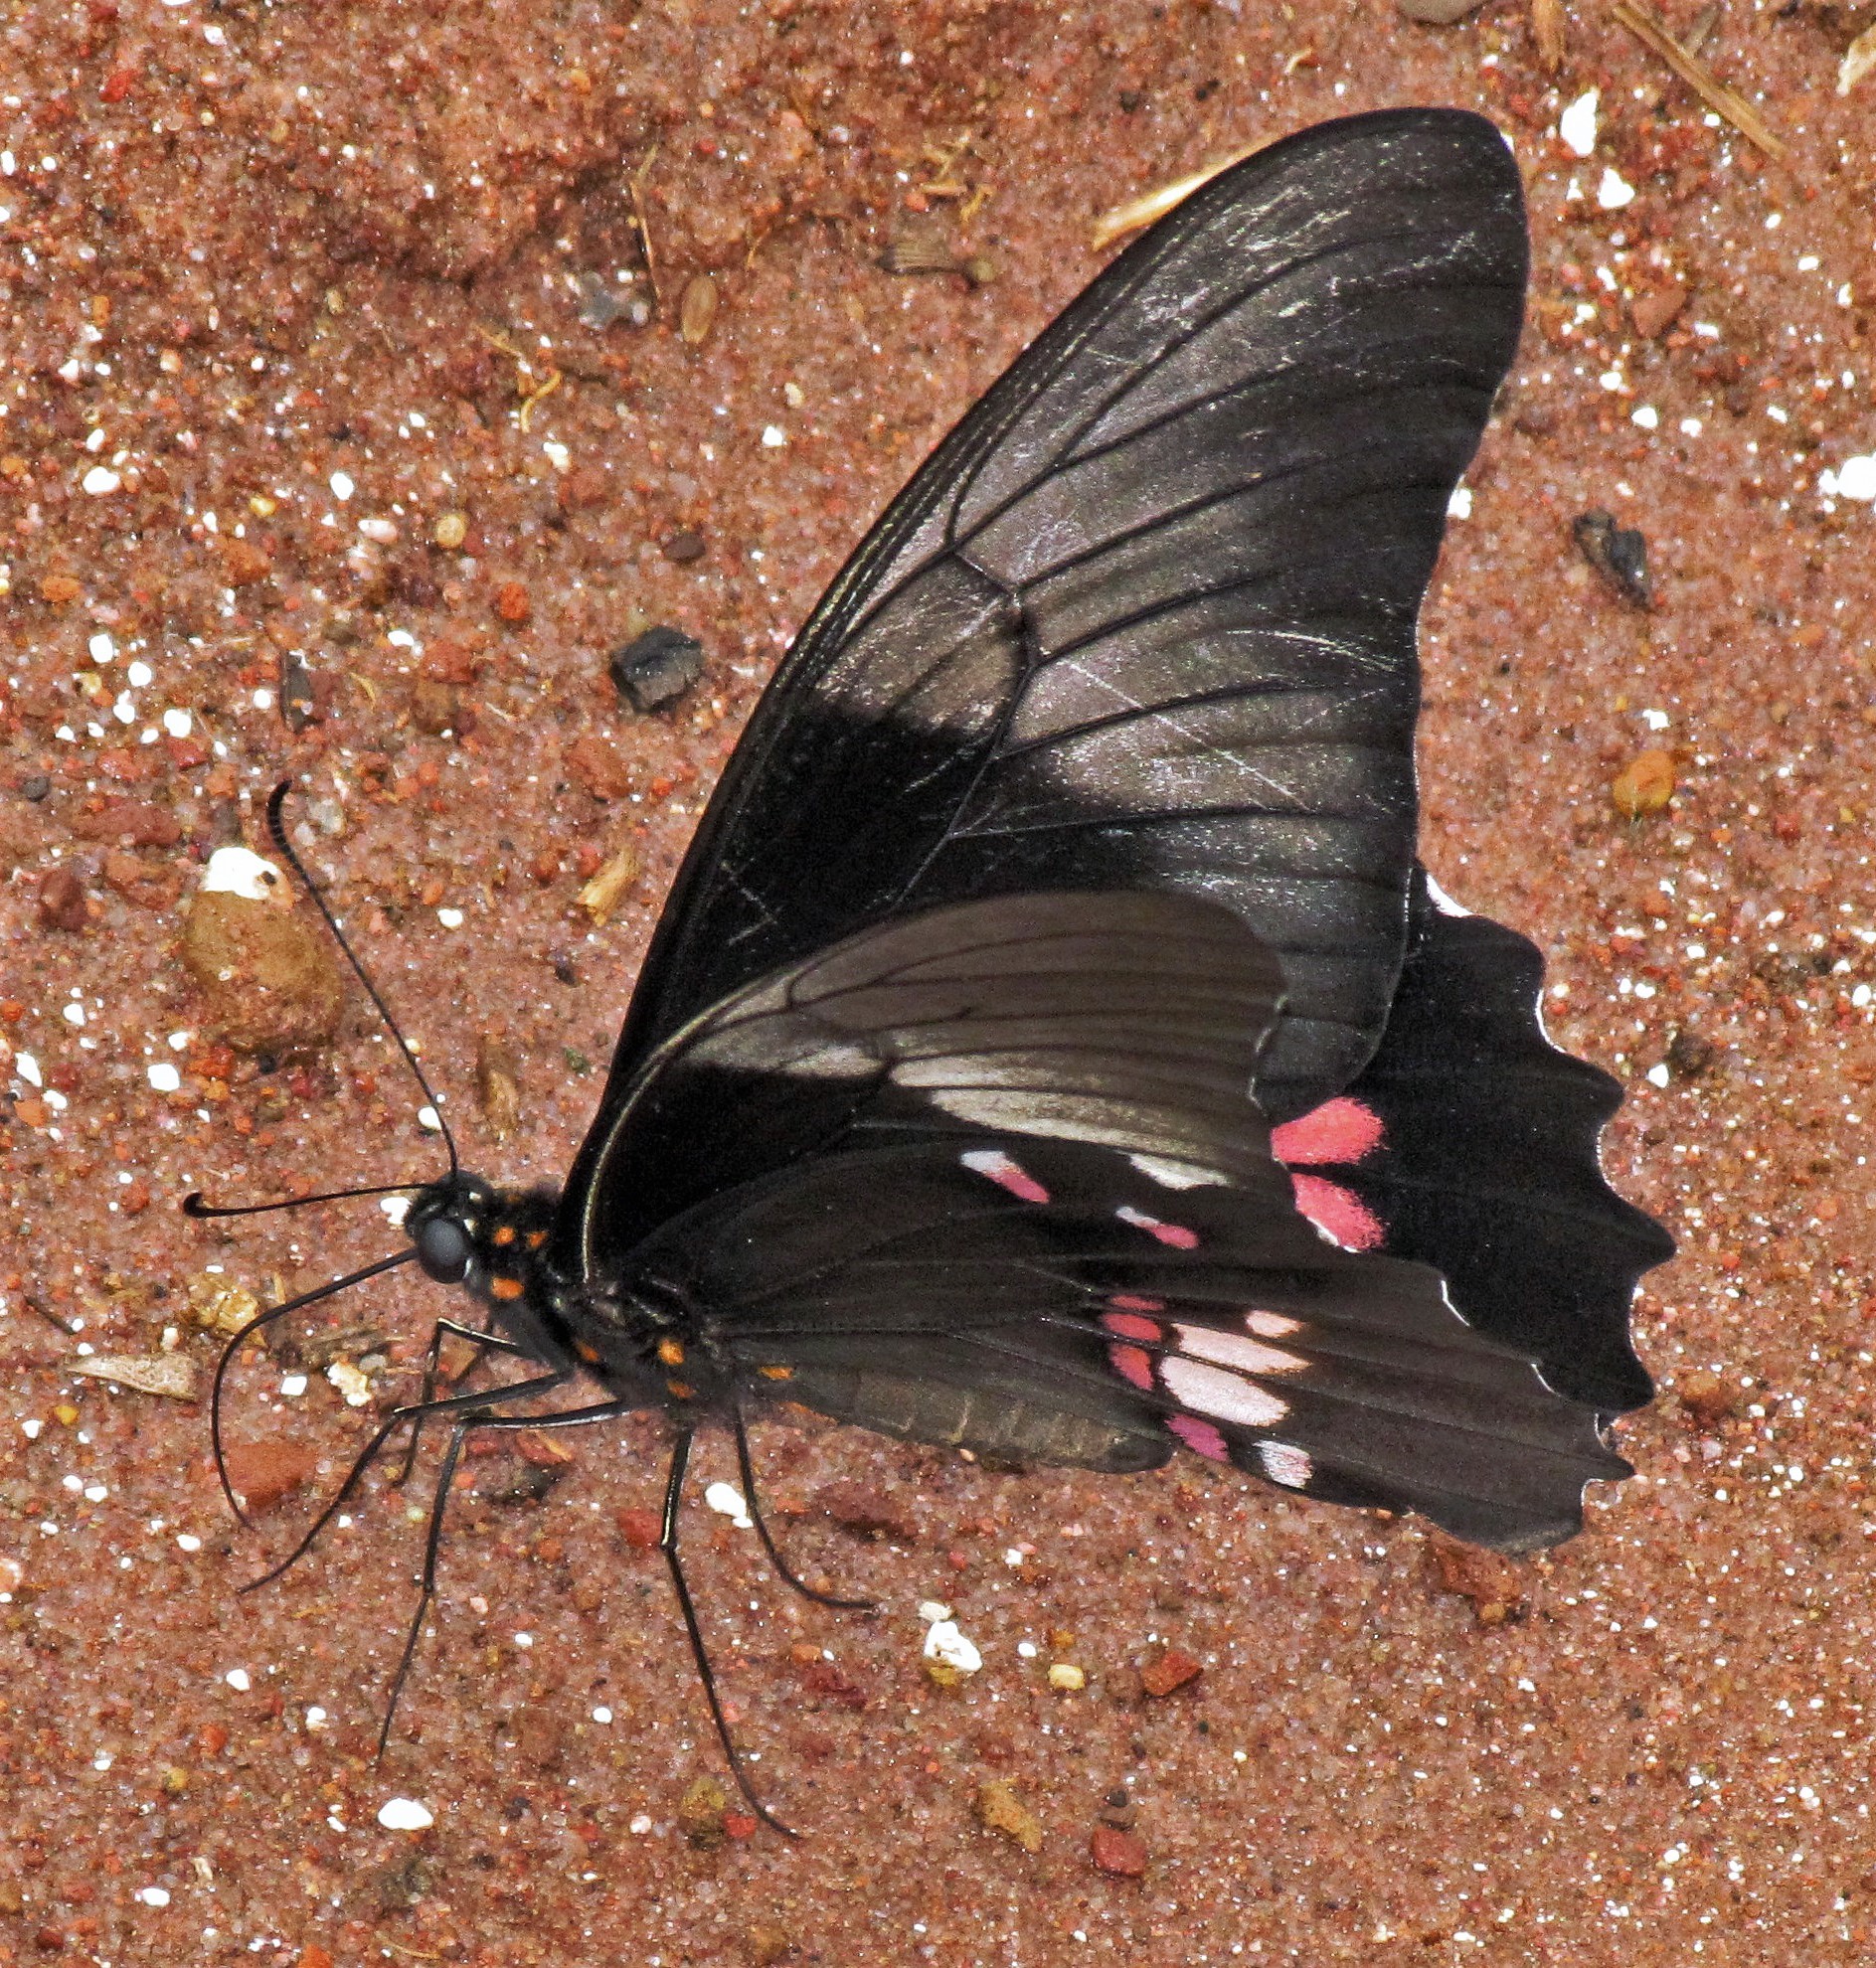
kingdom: Animalia
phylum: Arthropoda
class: Insecta
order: Lepidoptera
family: Papilionidae
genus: Papilio
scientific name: Papilio anchisiades
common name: Idaes swallowtail
